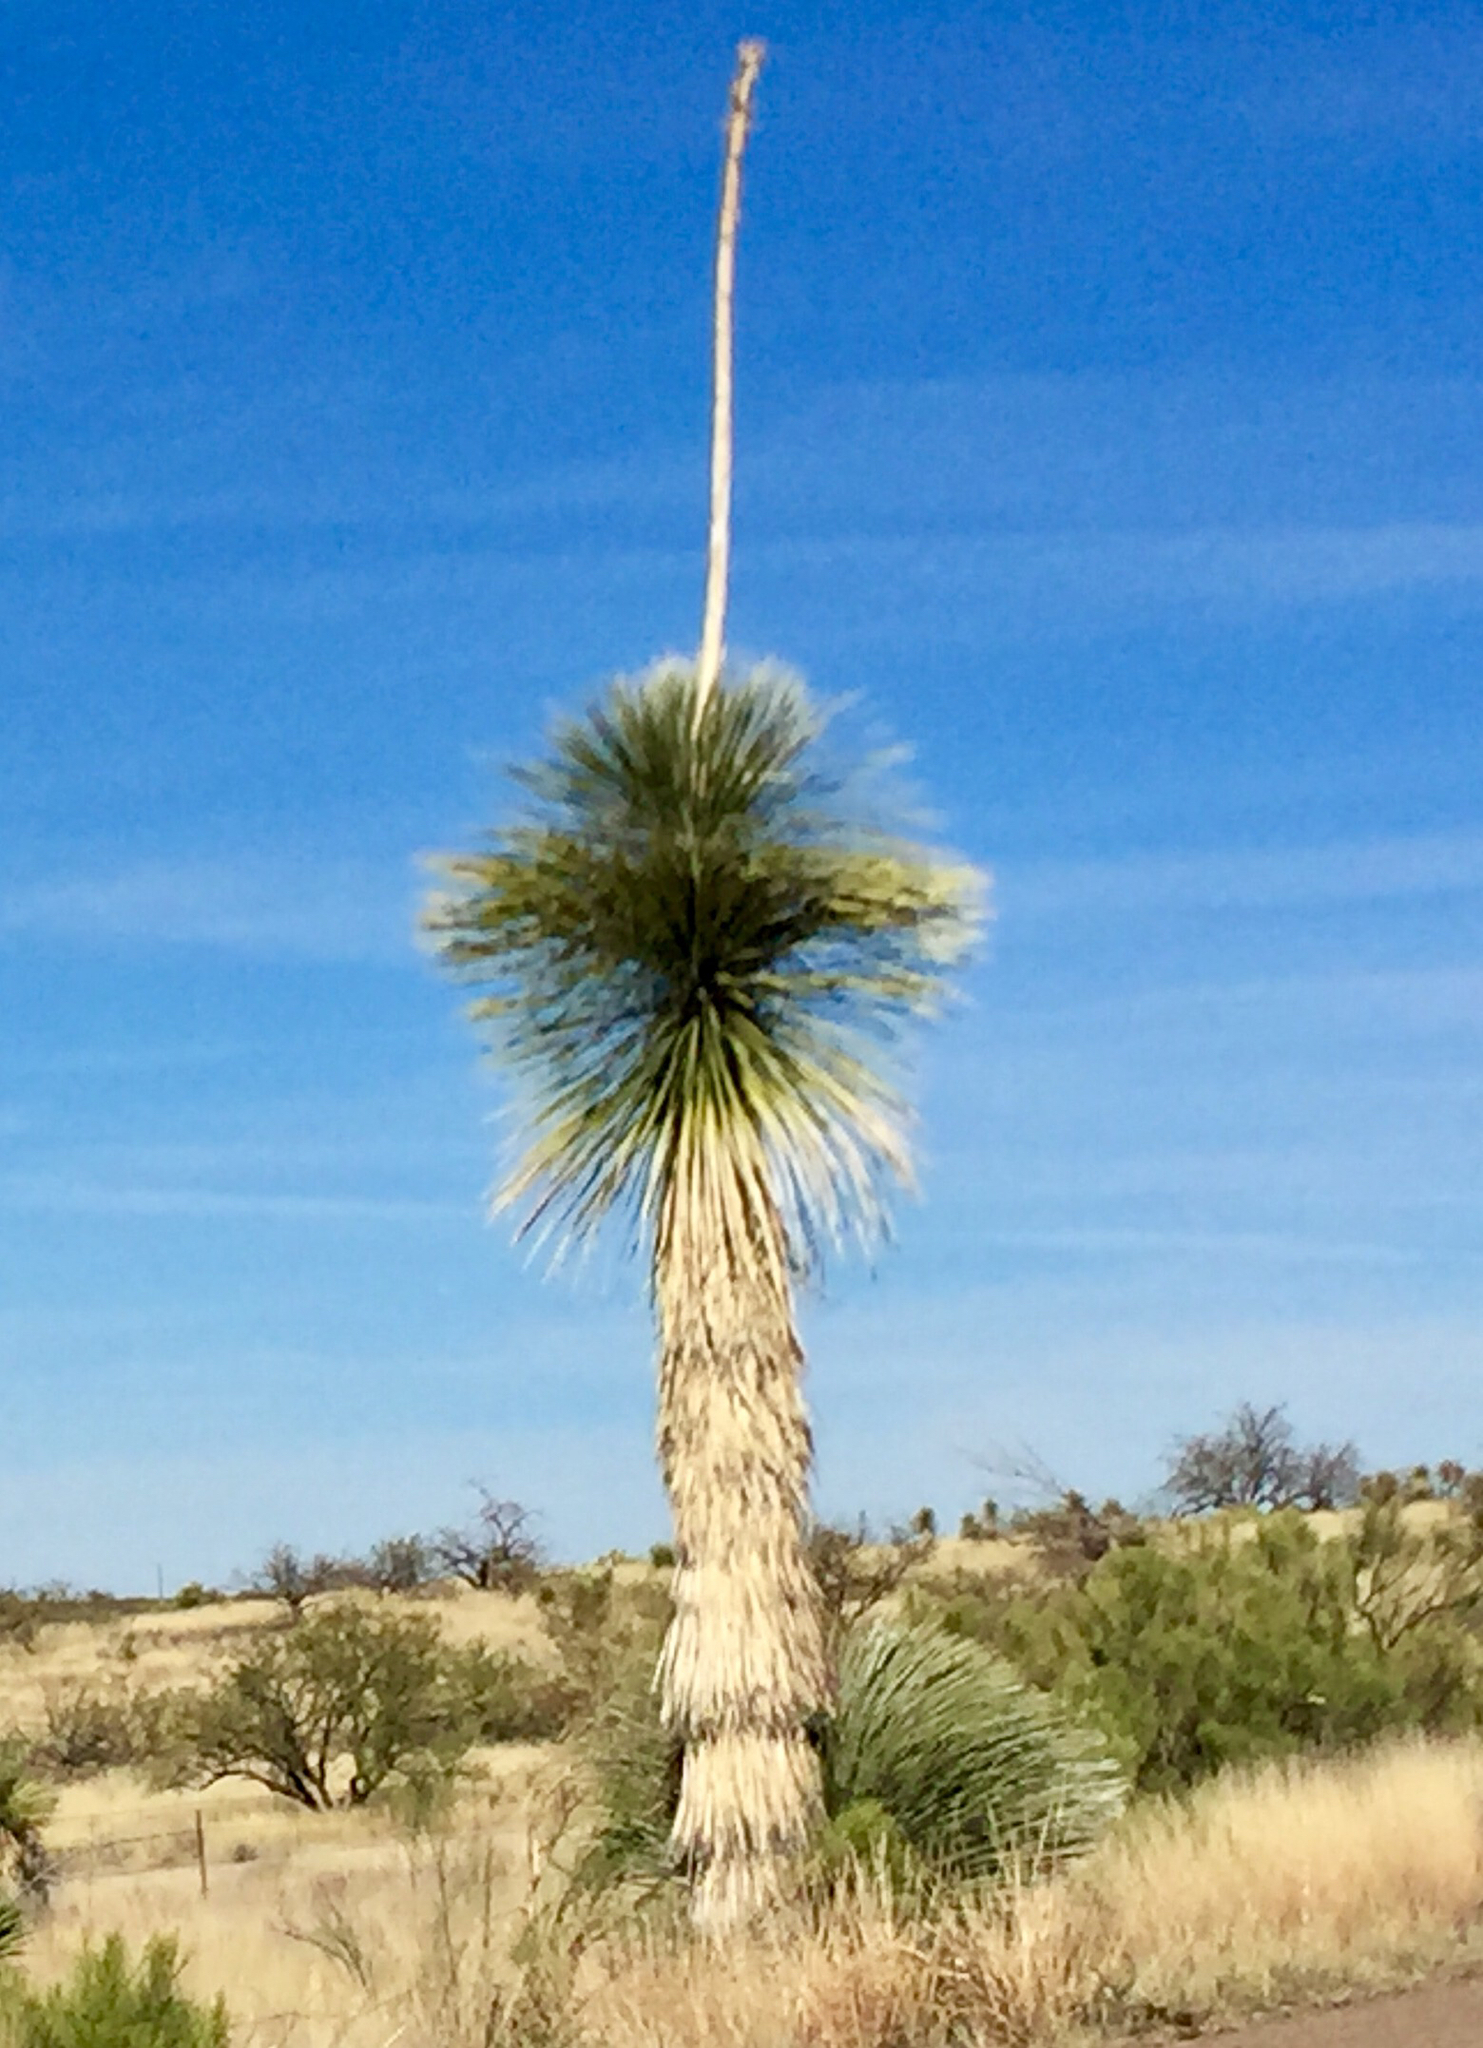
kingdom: Plantae
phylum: Tracheophyta
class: Liliopsida
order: Asparagales
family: Asparagaceae
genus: Yucca
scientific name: Yucca elata
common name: Palmella
